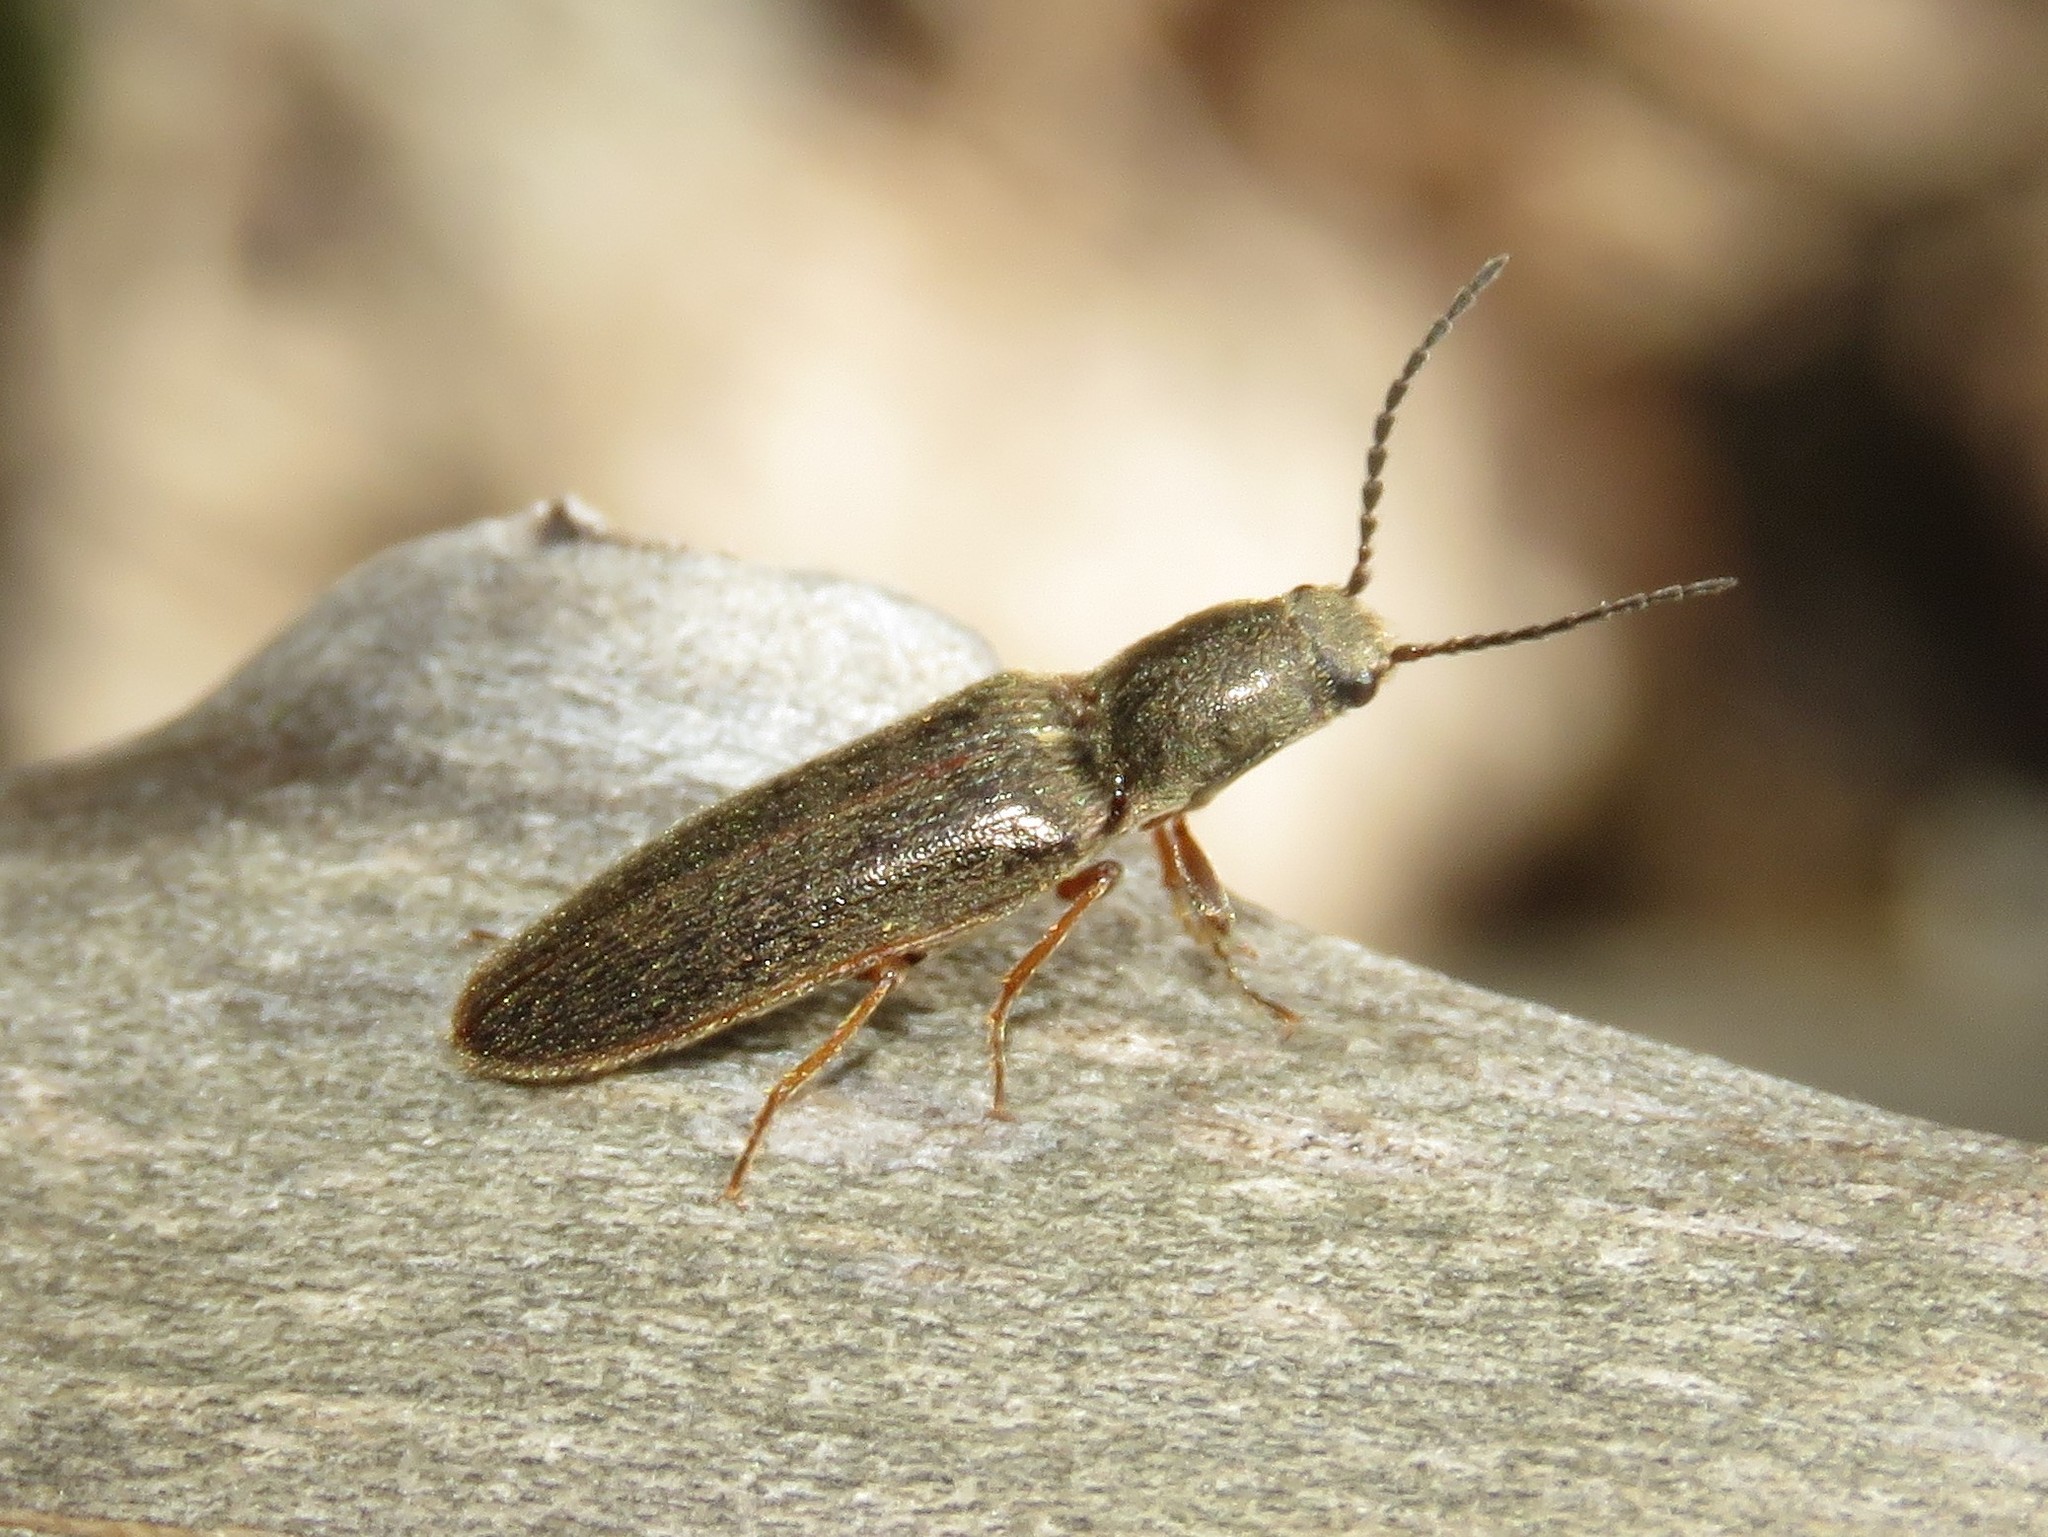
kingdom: Animalia
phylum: Arthropoda
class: Insecta
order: Coleoptera
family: Elateridae
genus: Sylvanelater
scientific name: Sylvanelater cylindriformis
